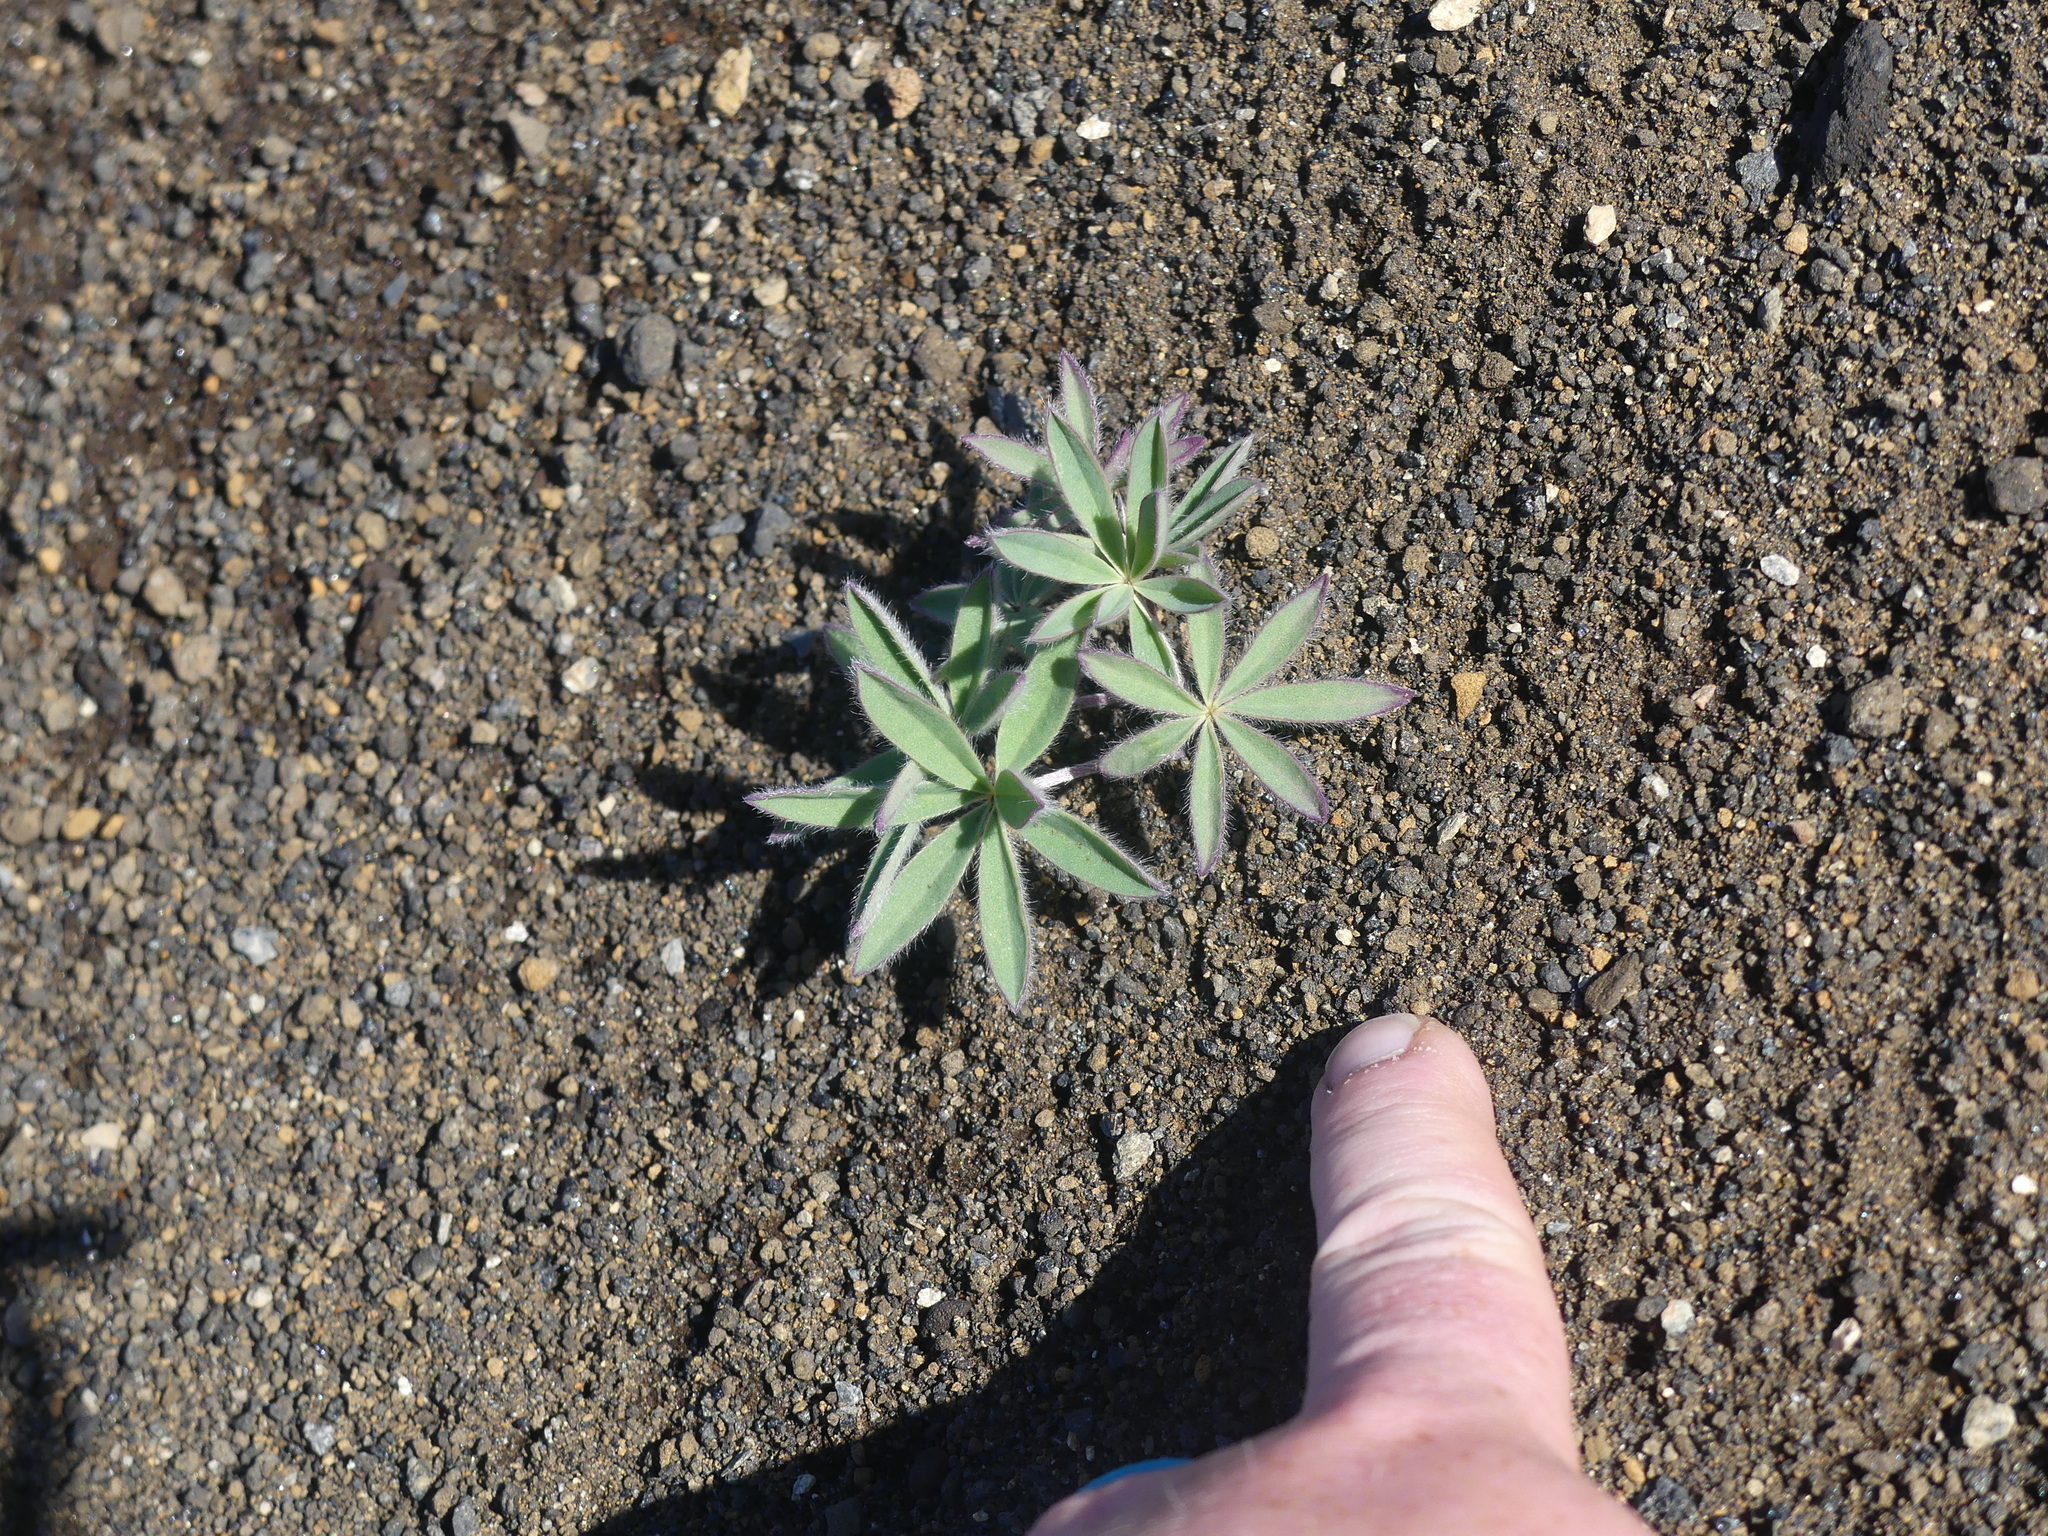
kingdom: Plantae
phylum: Tracheophyta
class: Magnoliopsida
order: Fabales
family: Fabaceae
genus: Lupinus
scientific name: Lupinus arcticus
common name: Arctic lupine
